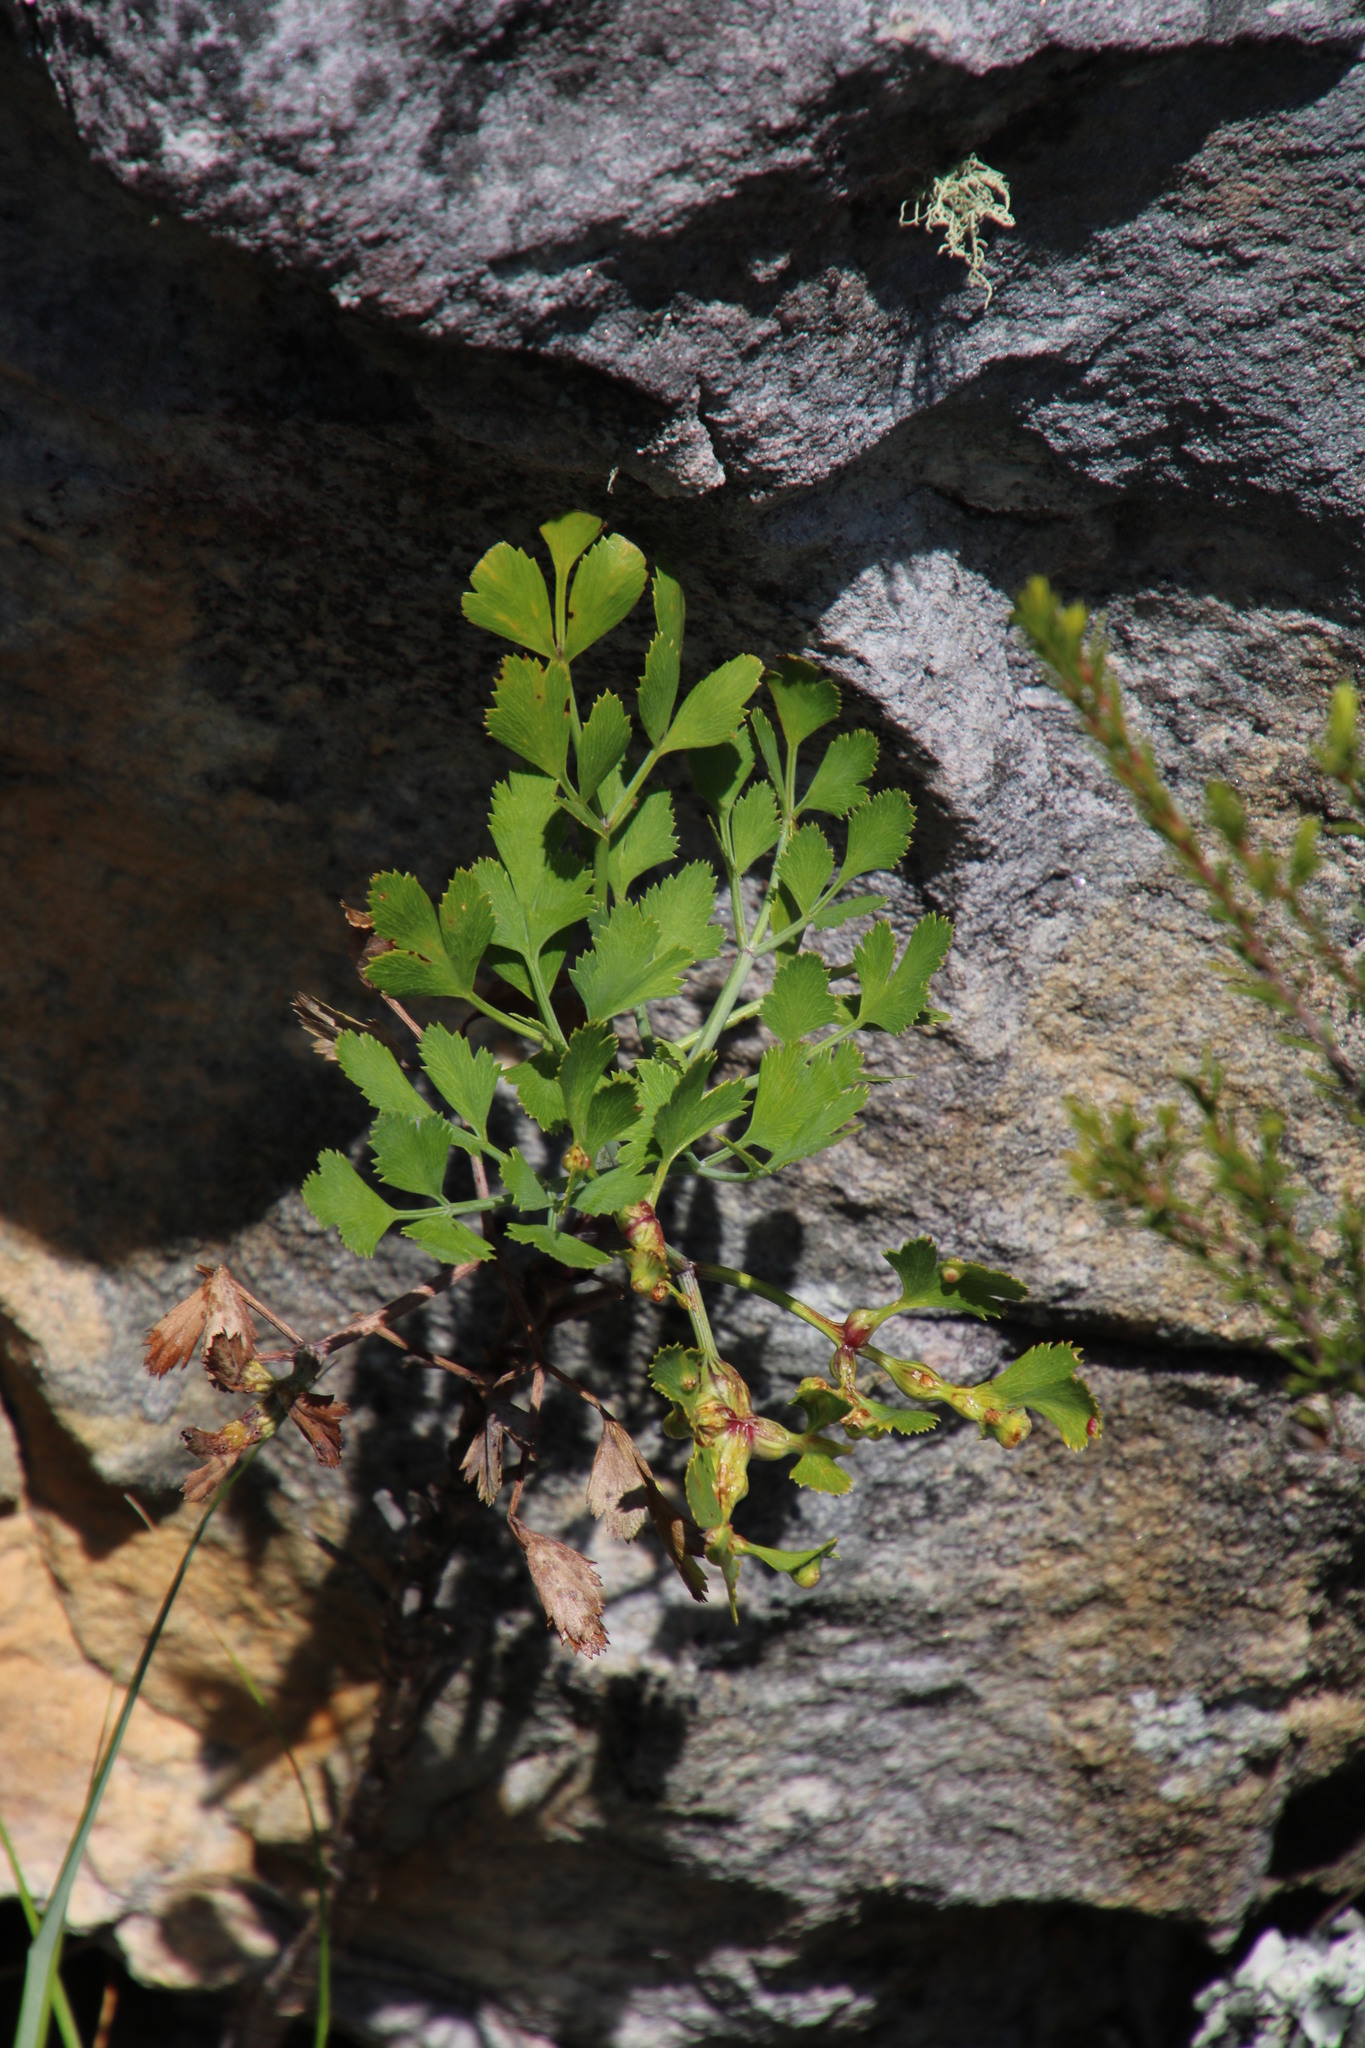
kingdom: Plantae
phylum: Tracheophyta
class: Magnoliopsida
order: Apiales
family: Apiaceae
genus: Notobubon
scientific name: Notobubon galbanum
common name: Blisterbush
